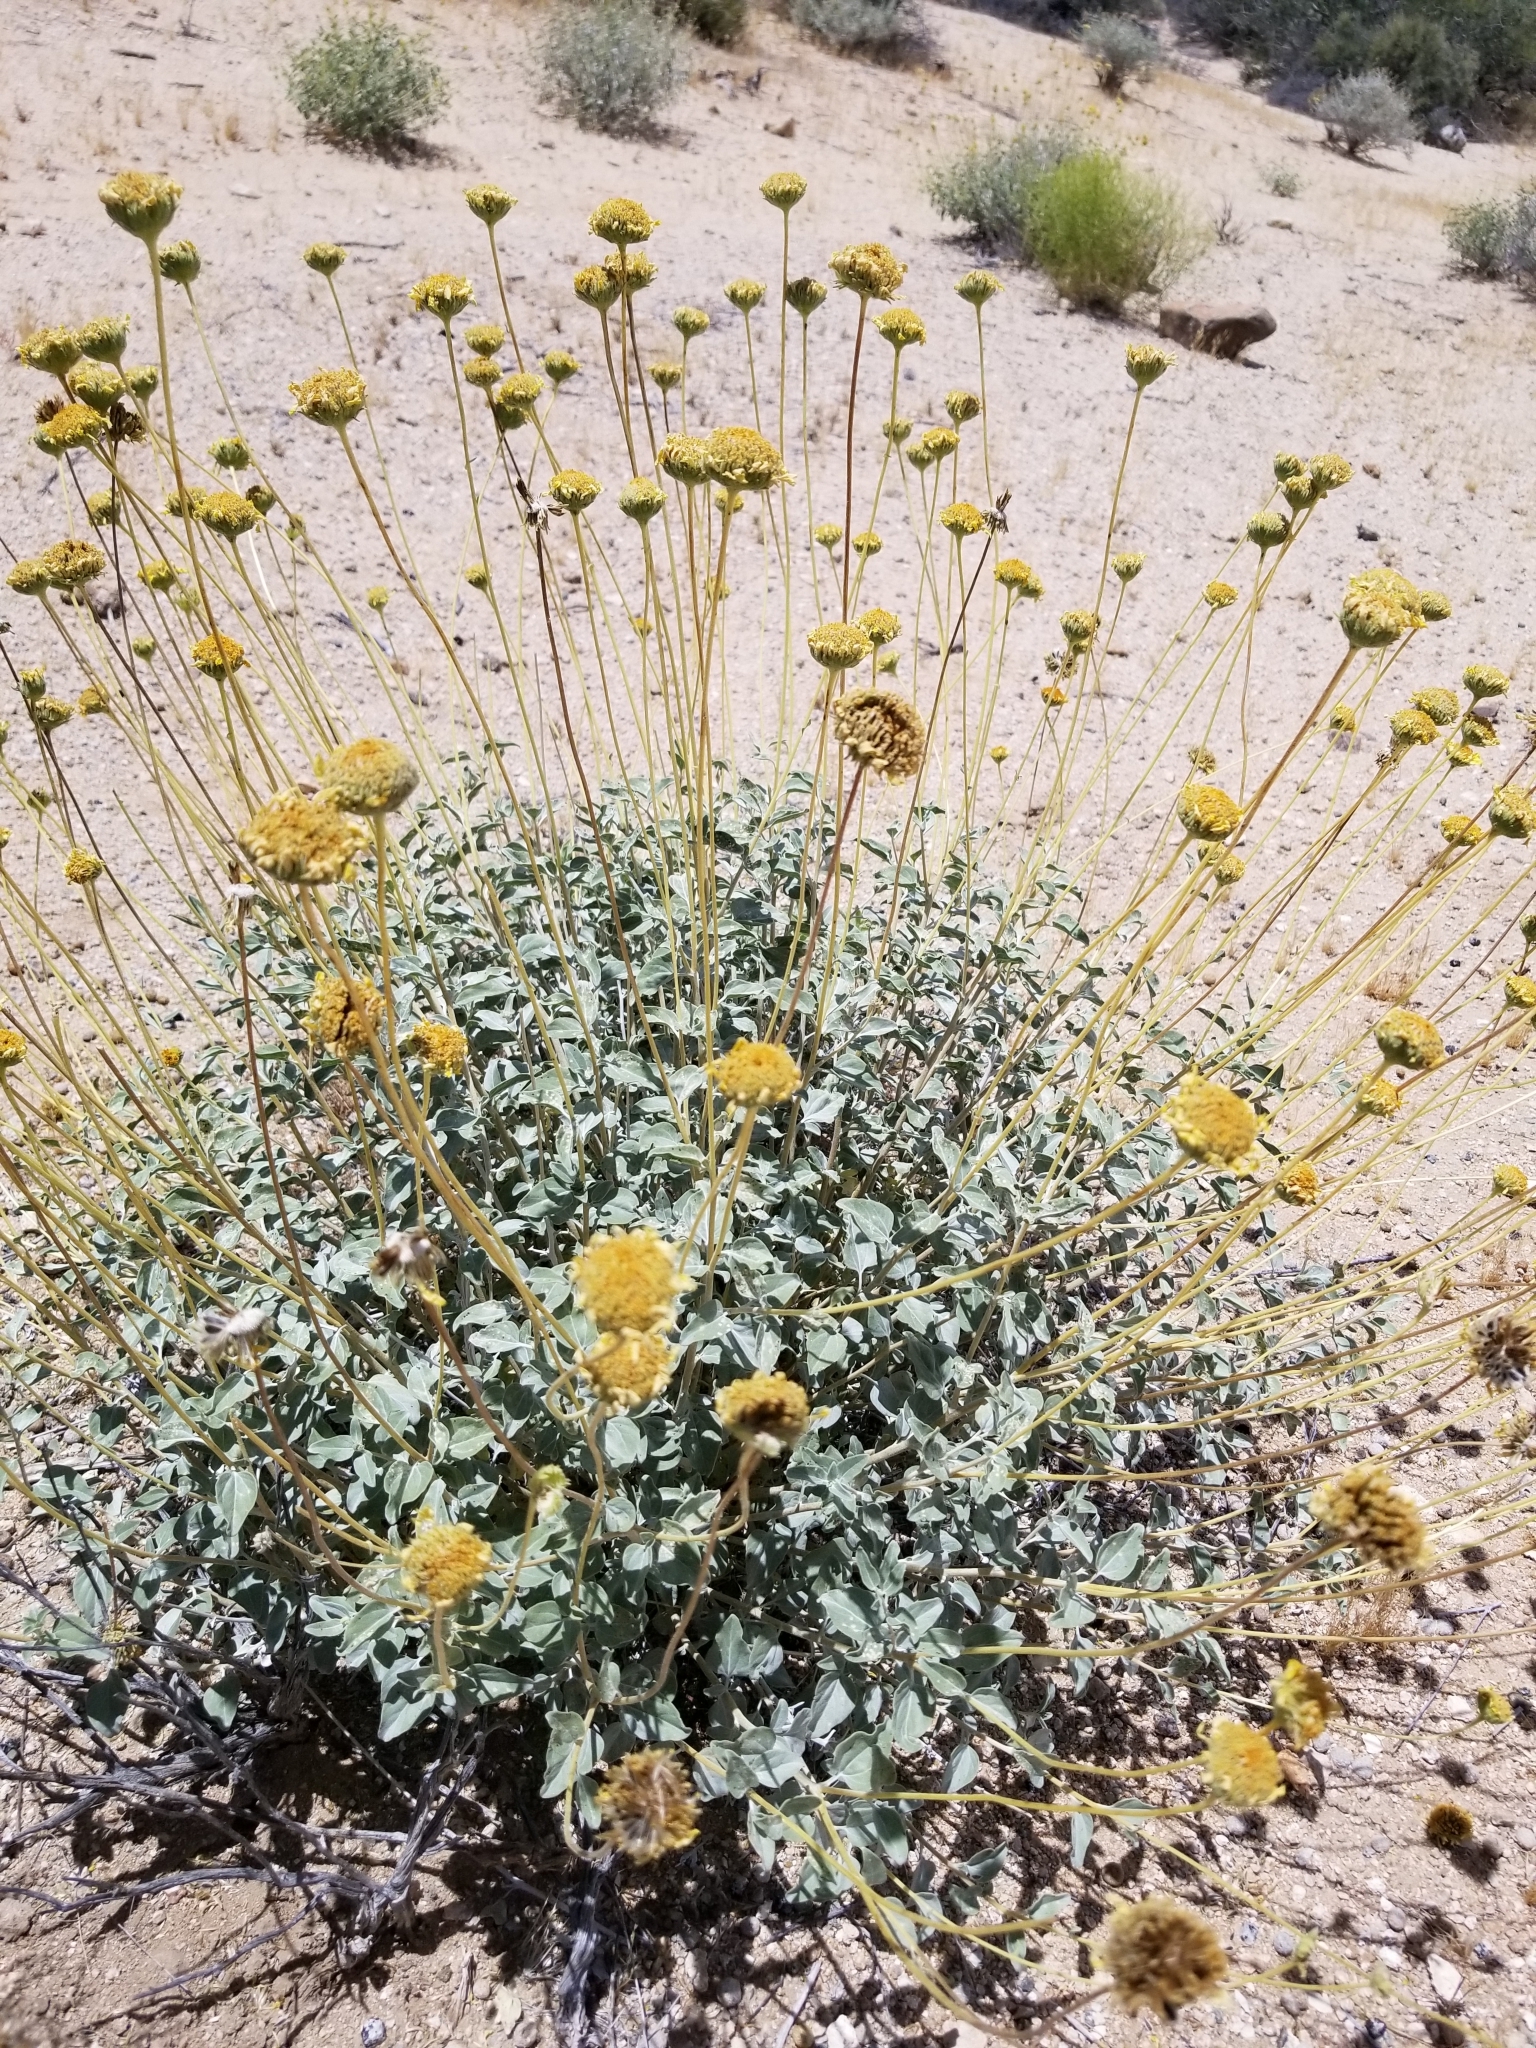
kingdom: Plantae
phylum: Tracheophyta
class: Magnoliopsida
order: Asterales
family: Asteraceae
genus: Encelia
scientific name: Encelia actoni
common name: Acton encelia
